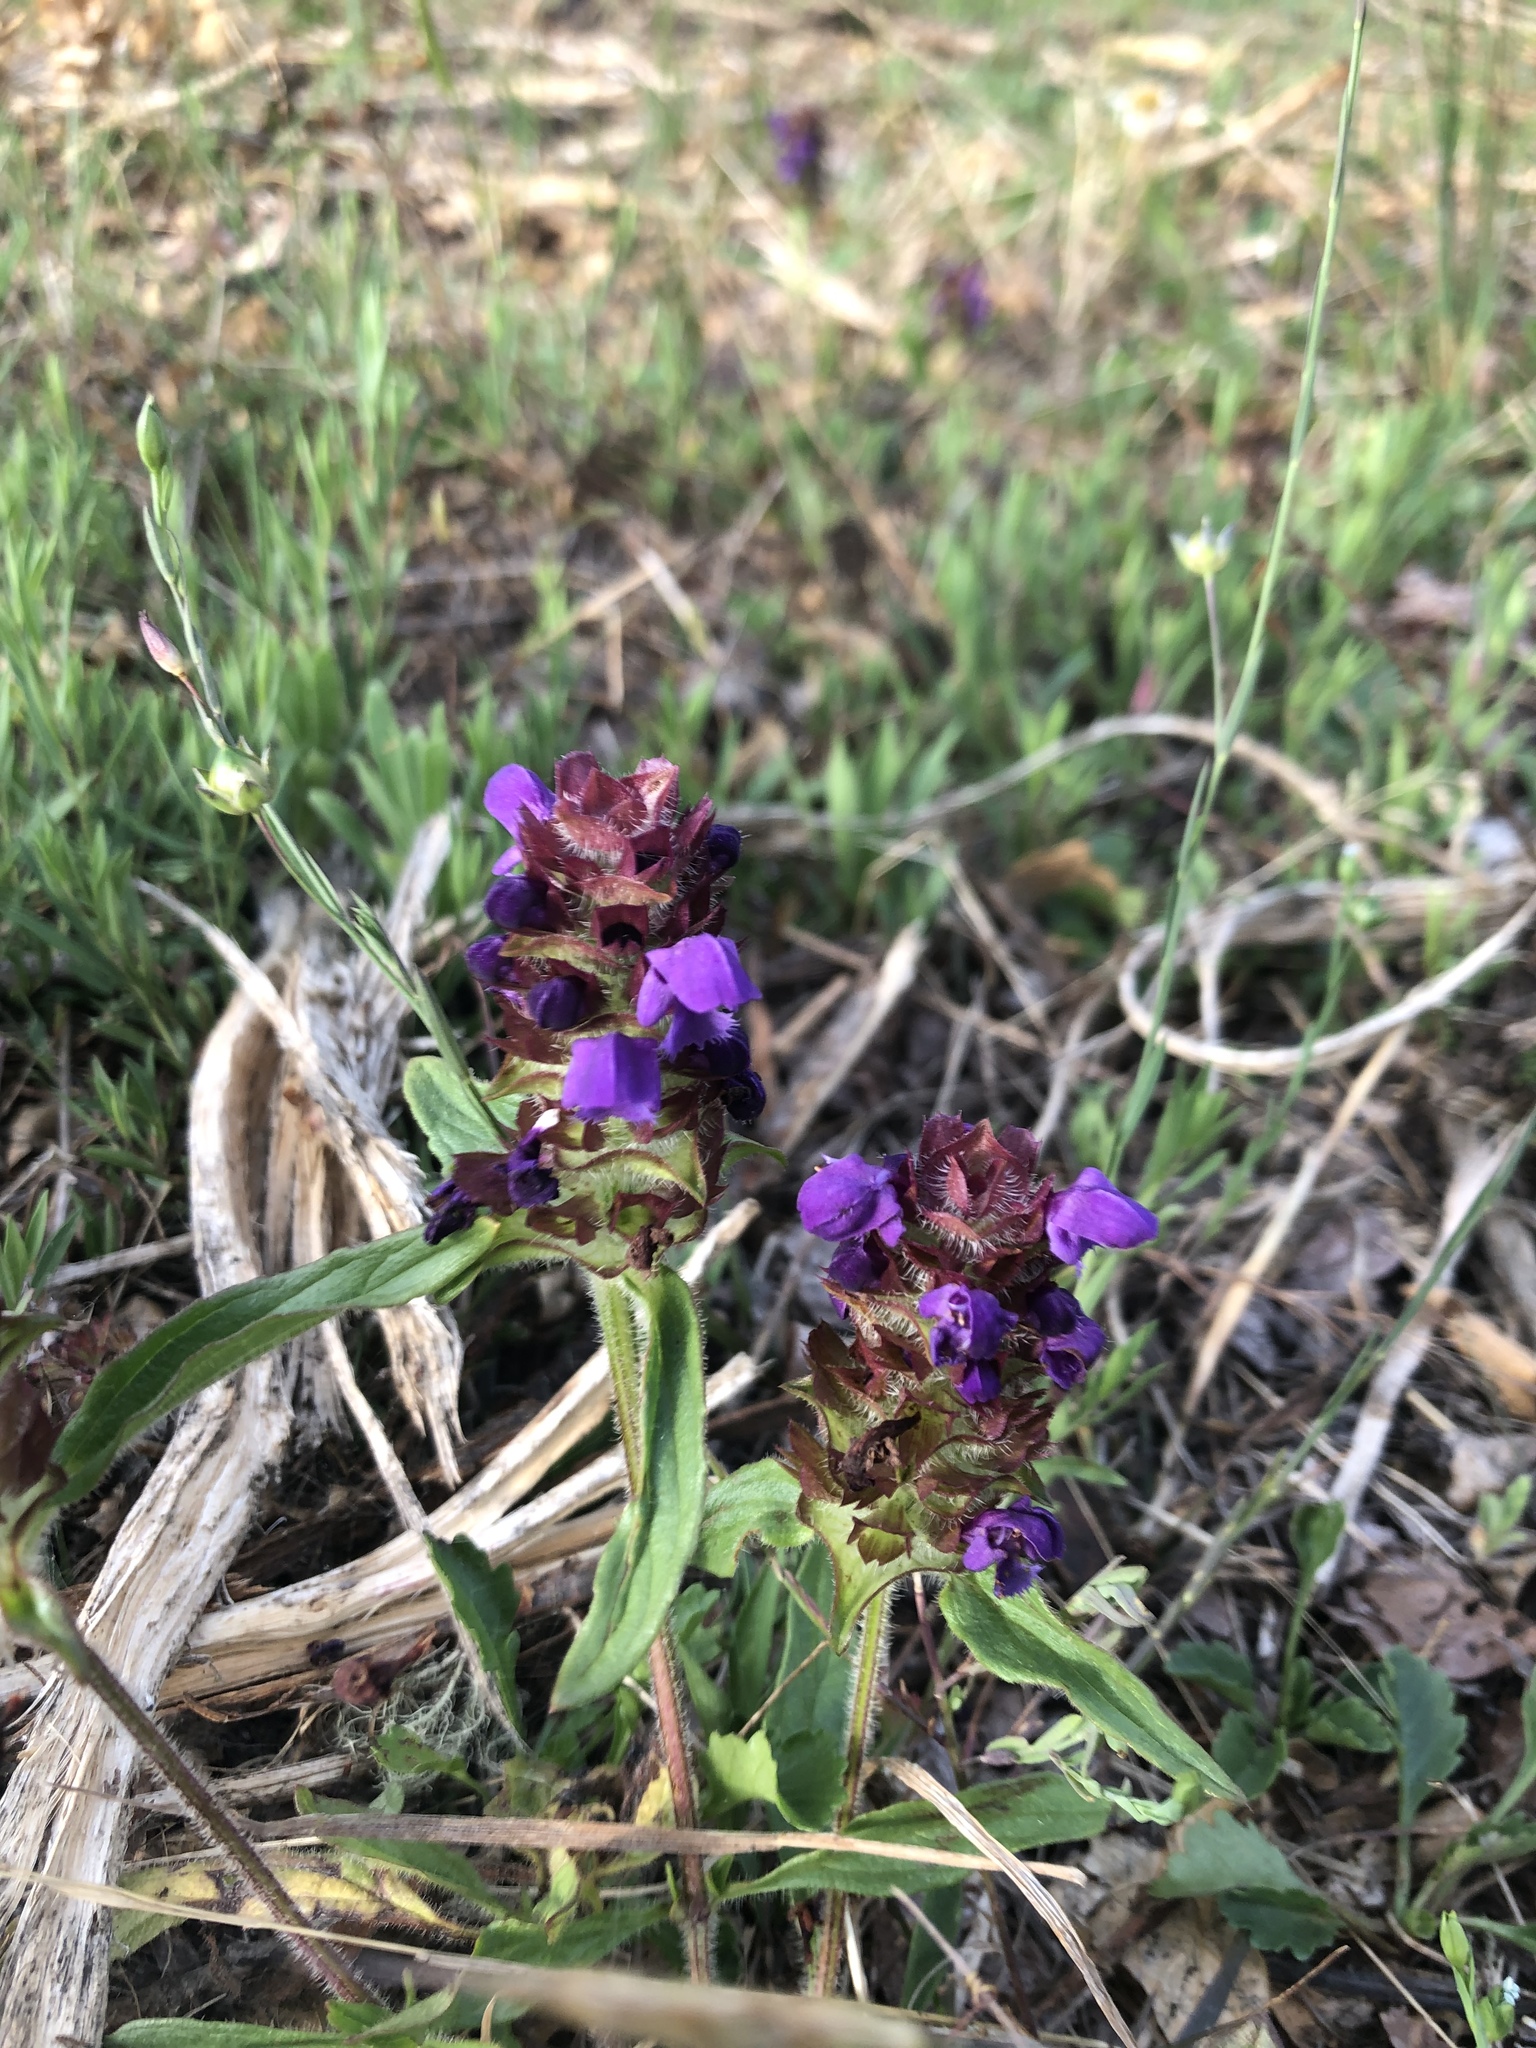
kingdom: Plantae
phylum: Tracheophyta
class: Magnoliopsida
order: Lamiales
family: Lamiaceae
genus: Prunella
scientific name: Prunella vulgaris
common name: Heal-all
